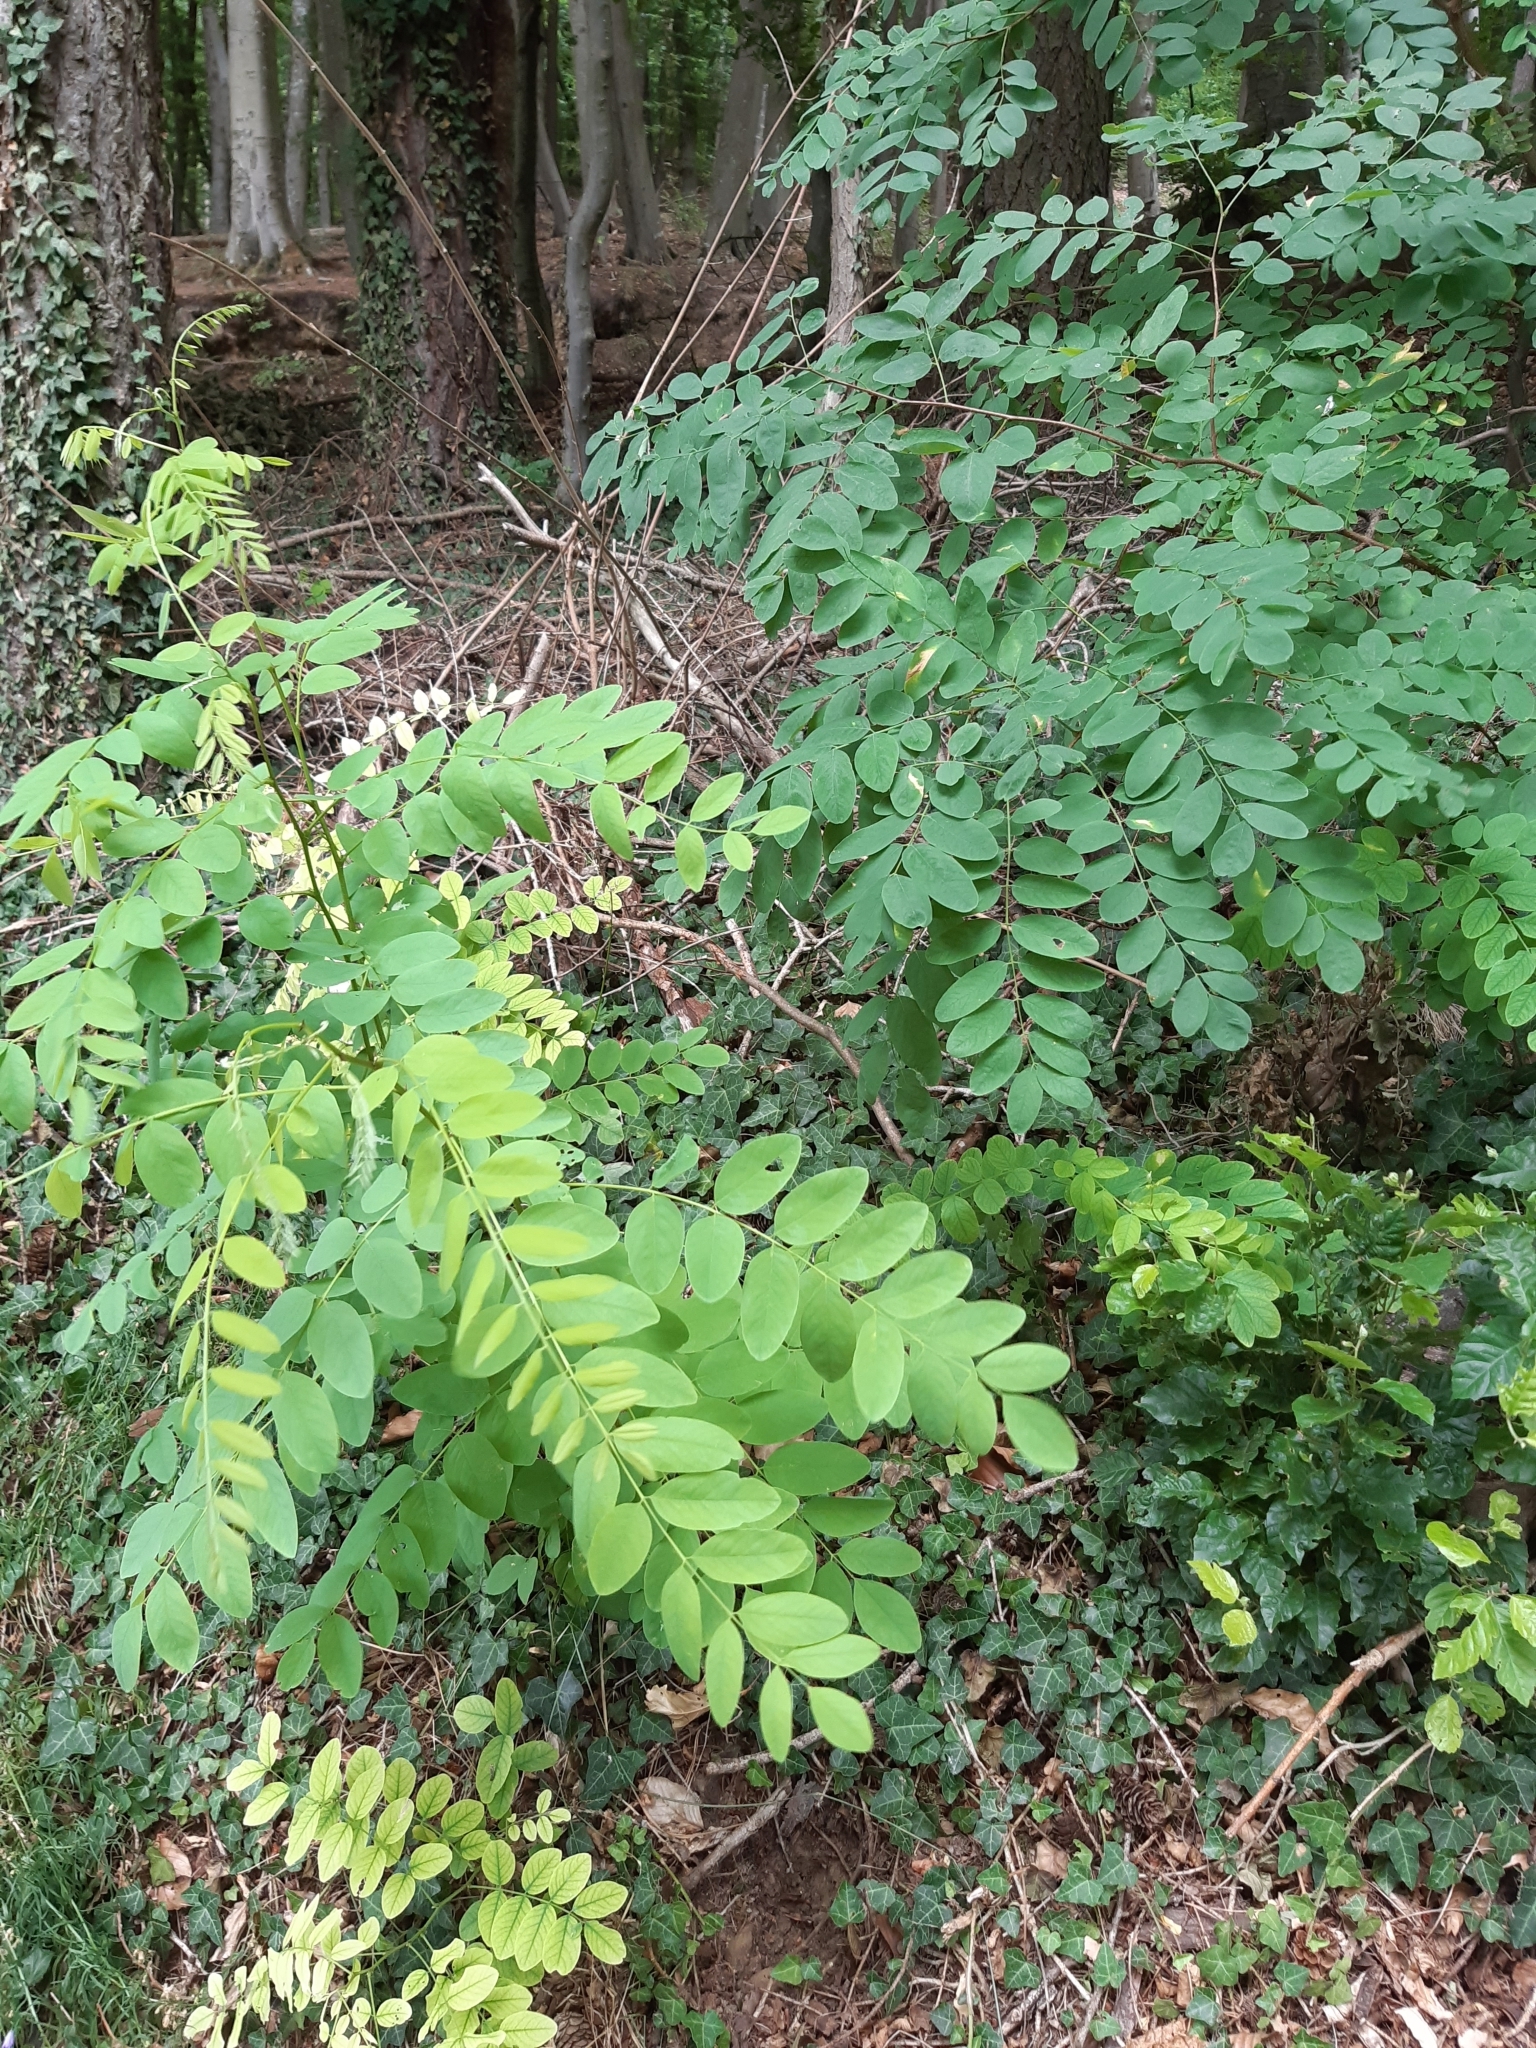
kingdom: Plantae
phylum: Tracheophyta
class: Magnoliopsida
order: Fabales
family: Fabaceae
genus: Robinia
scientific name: Robinia pseudoacacia
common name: Black locust
